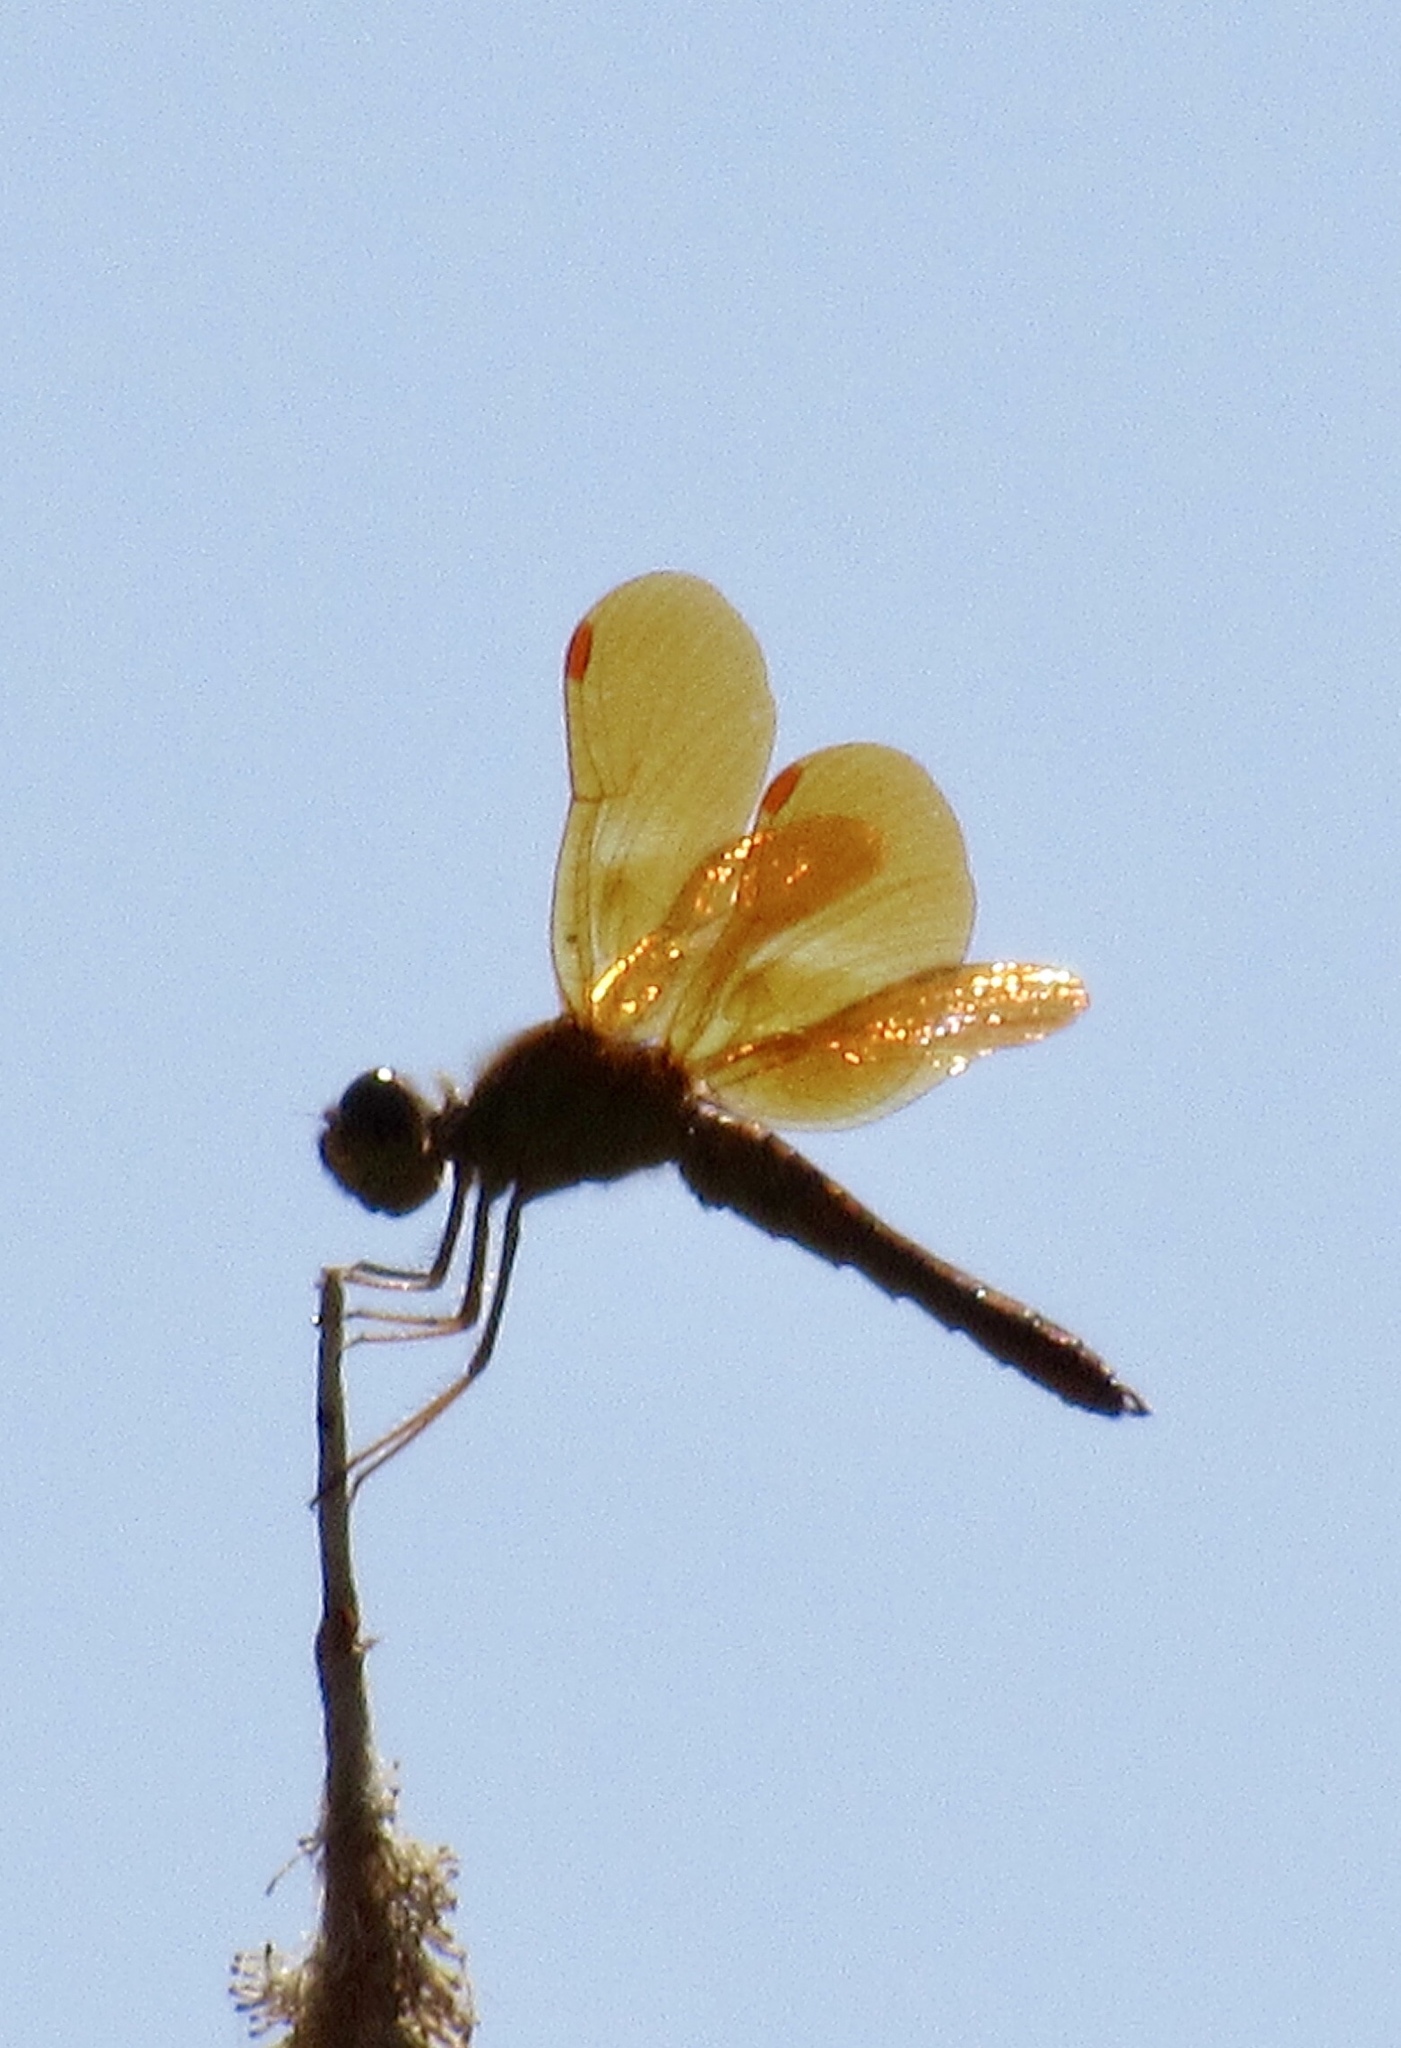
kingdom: Animalia
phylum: Arthropoda
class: Insecta
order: Odonata
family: Libellulidae
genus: Perithemis
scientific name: Perithemis intensa
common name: Mexican amberwing
